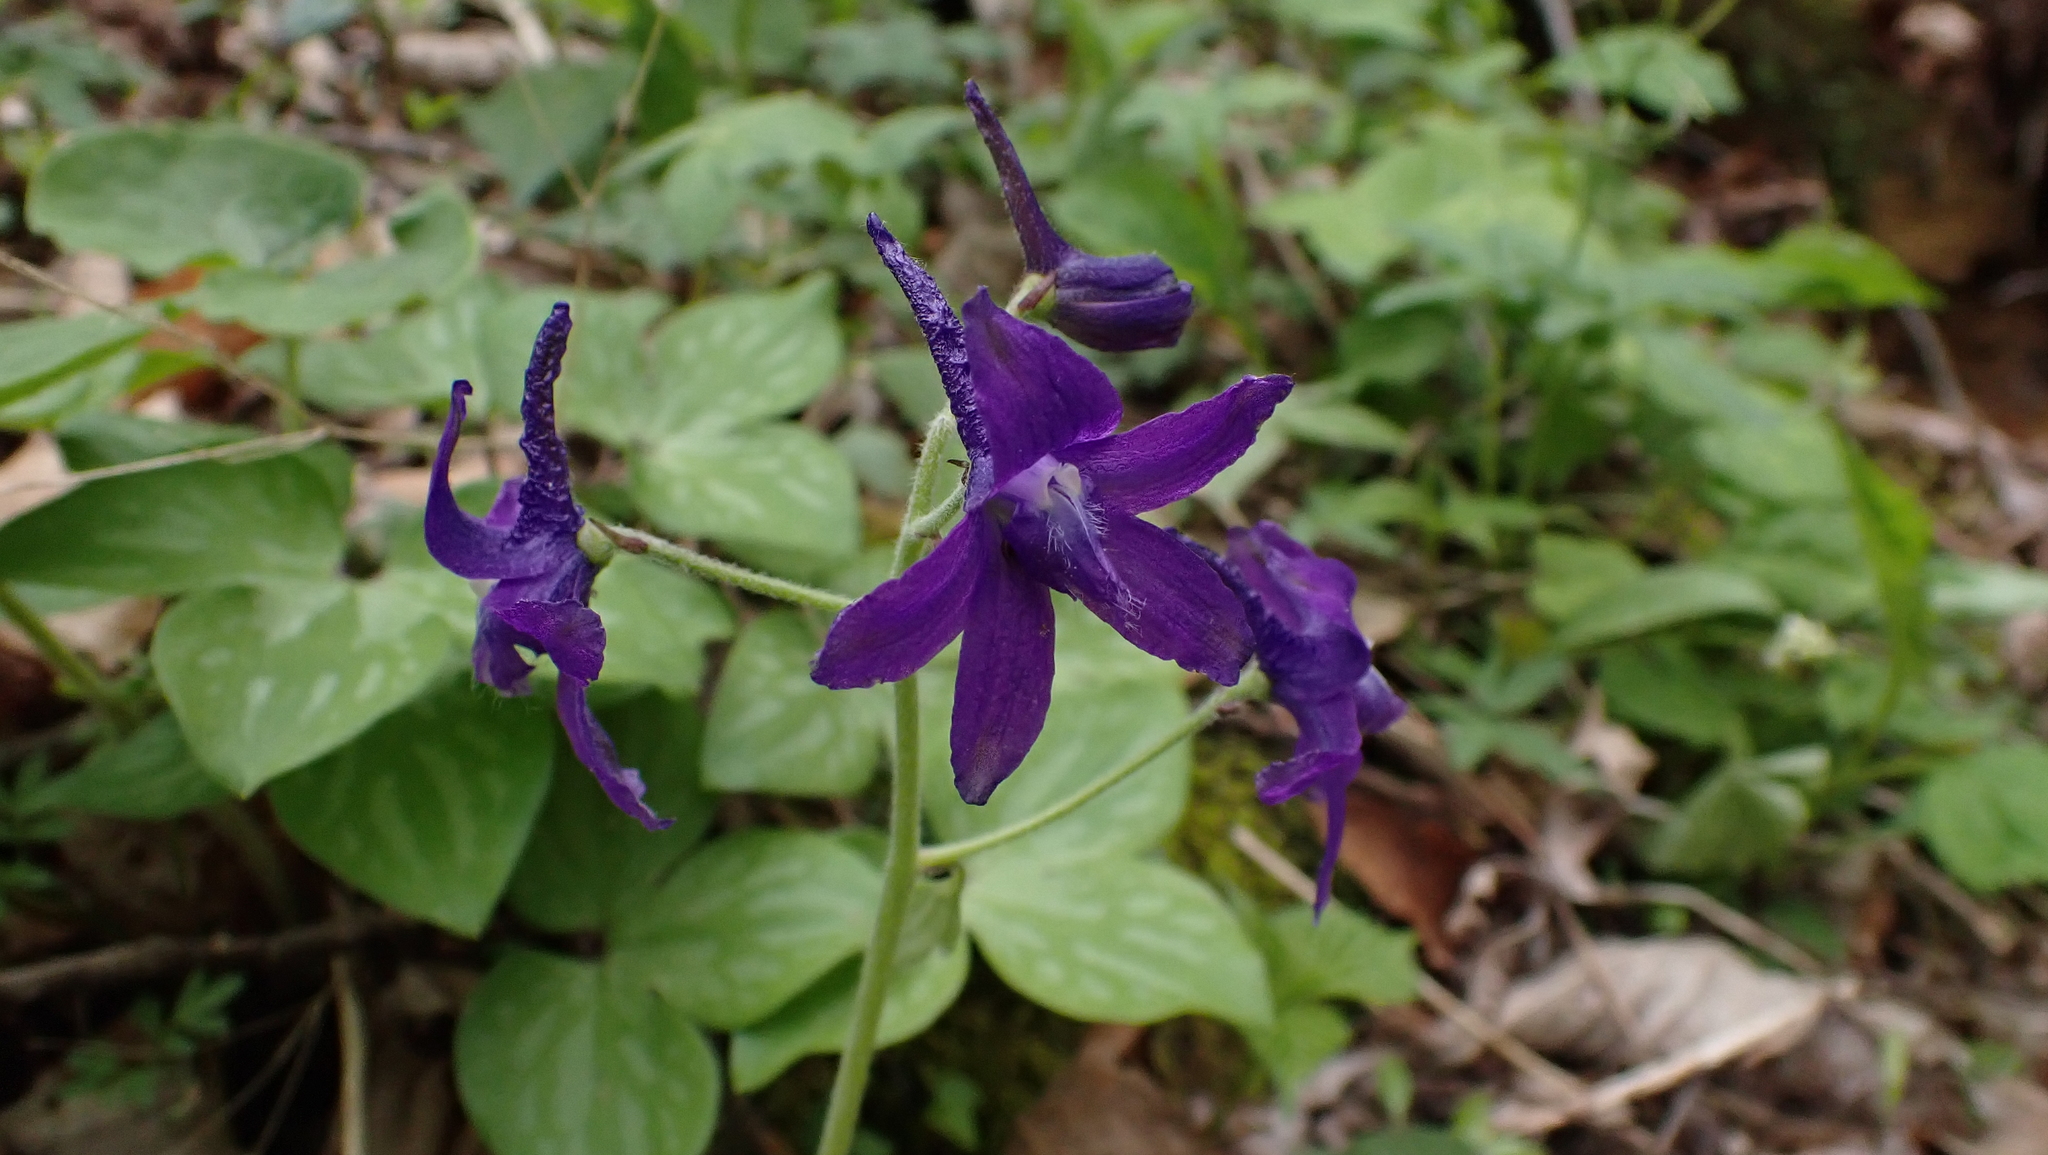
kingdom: Plantae
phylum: Tracheophyta
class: Magnoliopsida
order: Ranunculales
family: Ranunculaceae
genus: Delphinium
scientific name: Delphinium tricorne
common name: Dwarf larkspur
